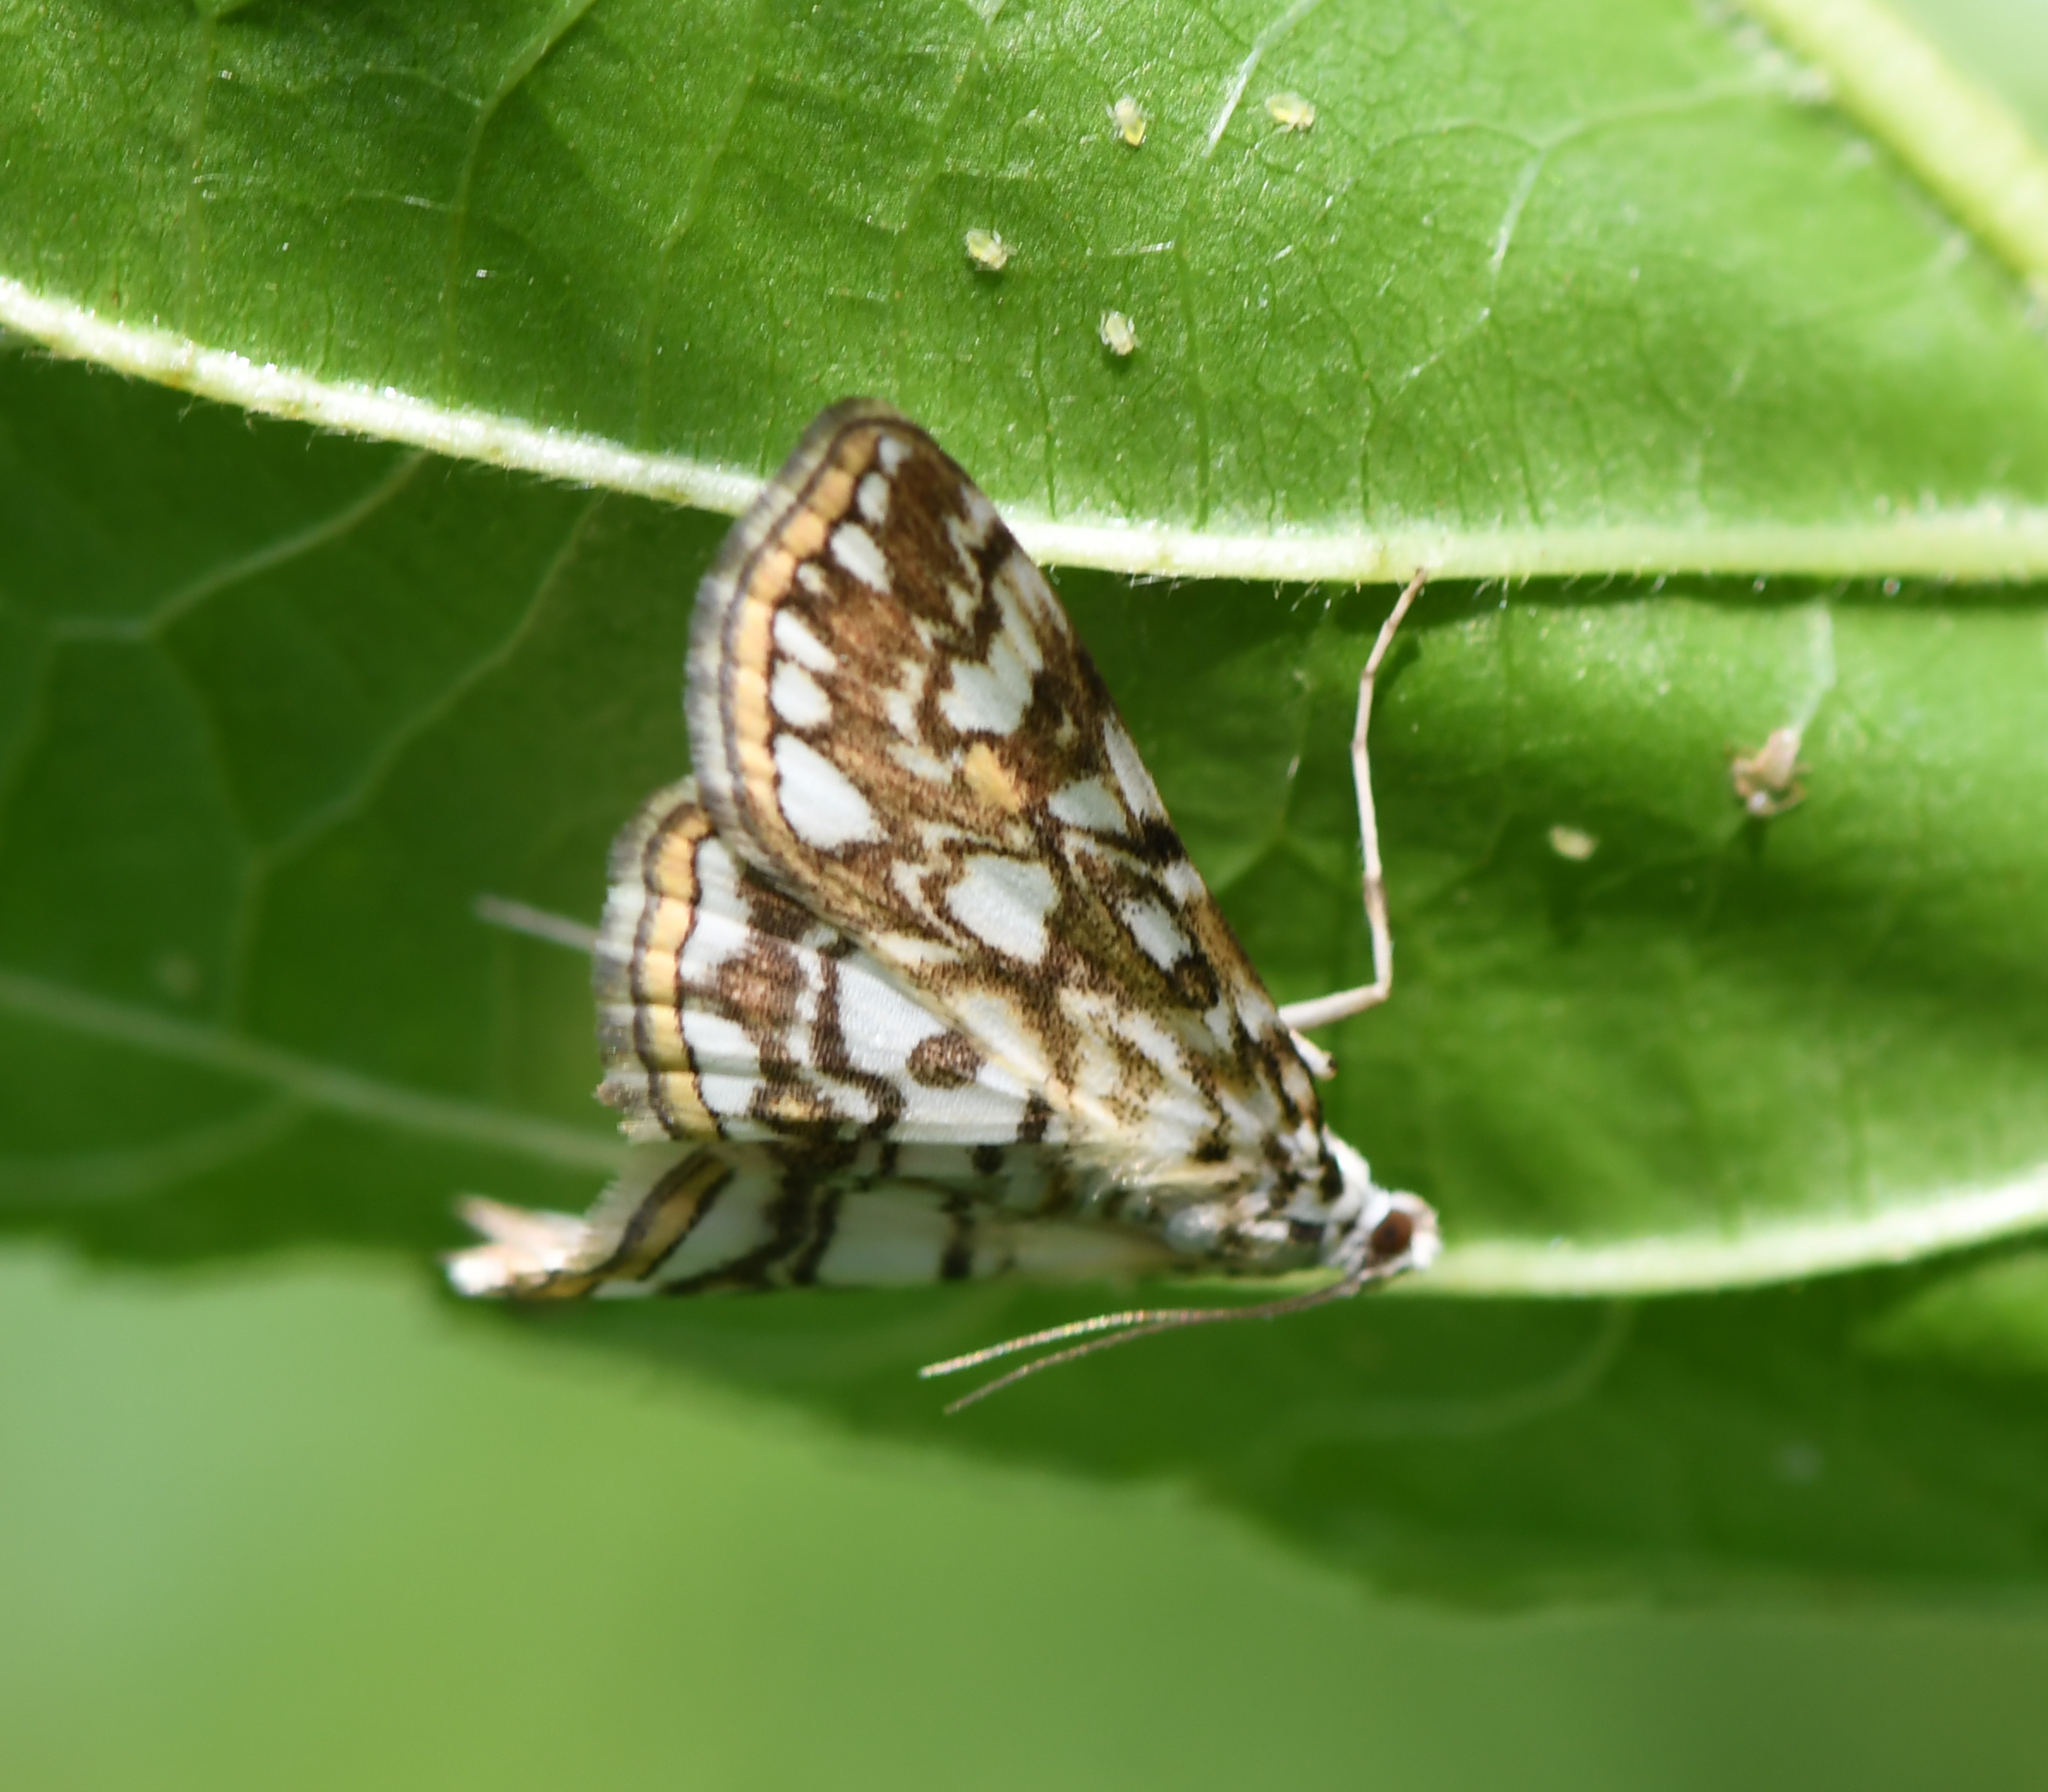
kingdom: Animalia
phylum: Arthropoda
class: Insecta
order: Lepidoptera
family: Crambidae
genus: Elophila
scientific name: Elophila nymphaeata
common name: Brown china-mark
